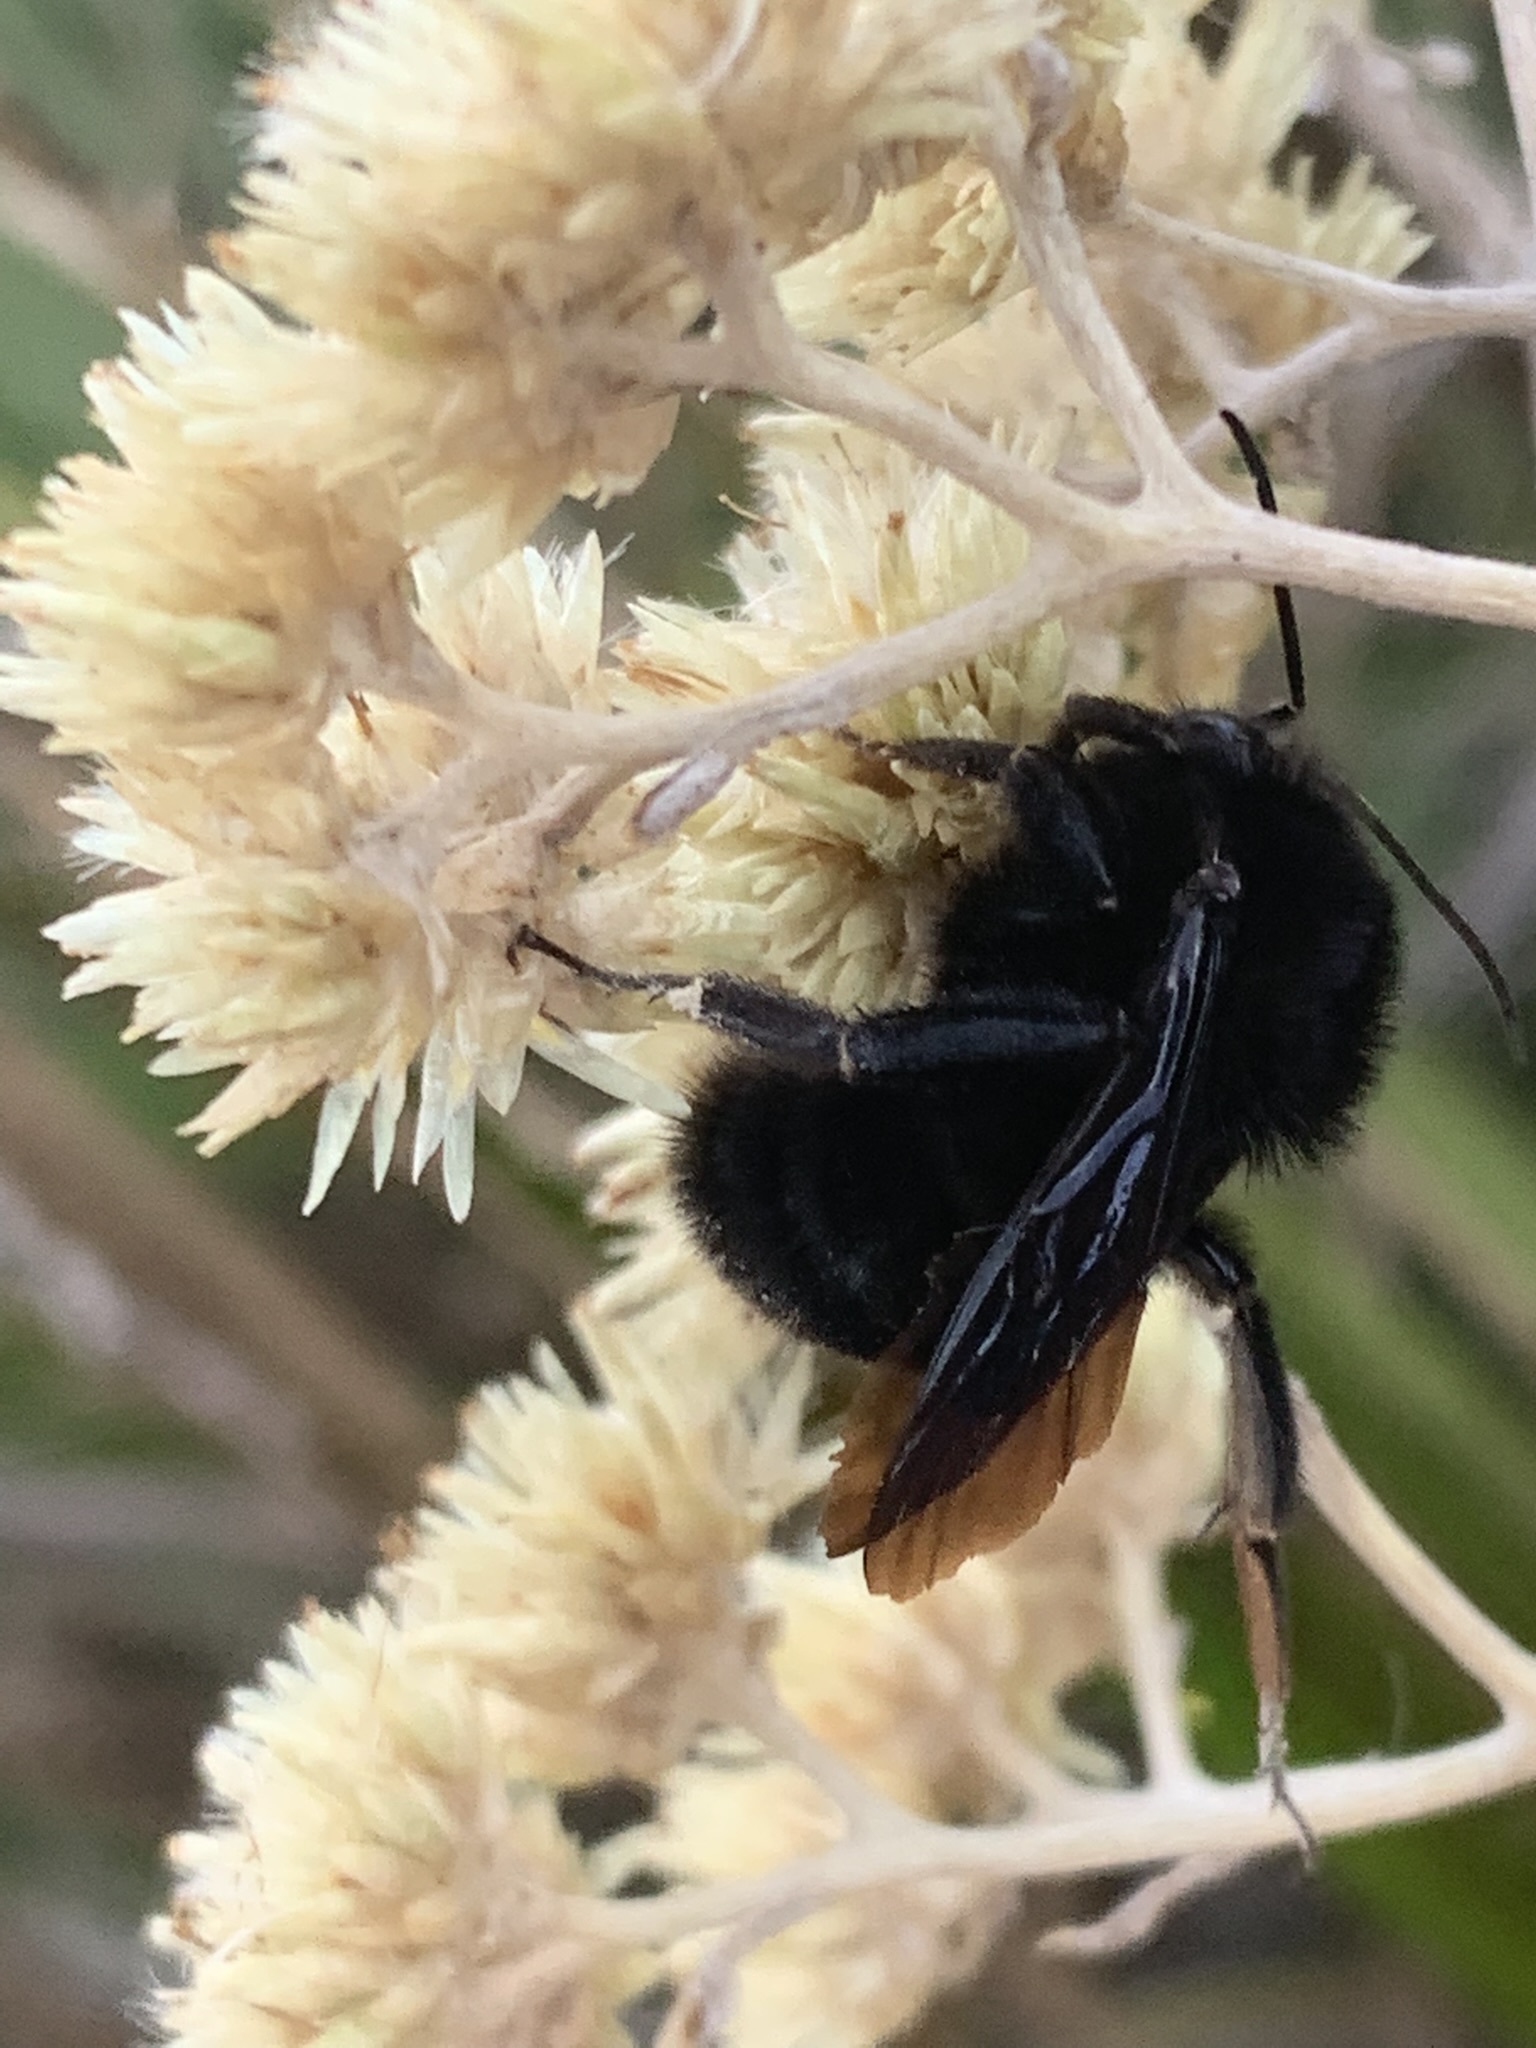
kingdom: Animalia
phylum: Arthropoda
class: Insecta
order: Hymenoptera
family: Apidae
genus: Bombus
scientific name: Bombus pauloensis
